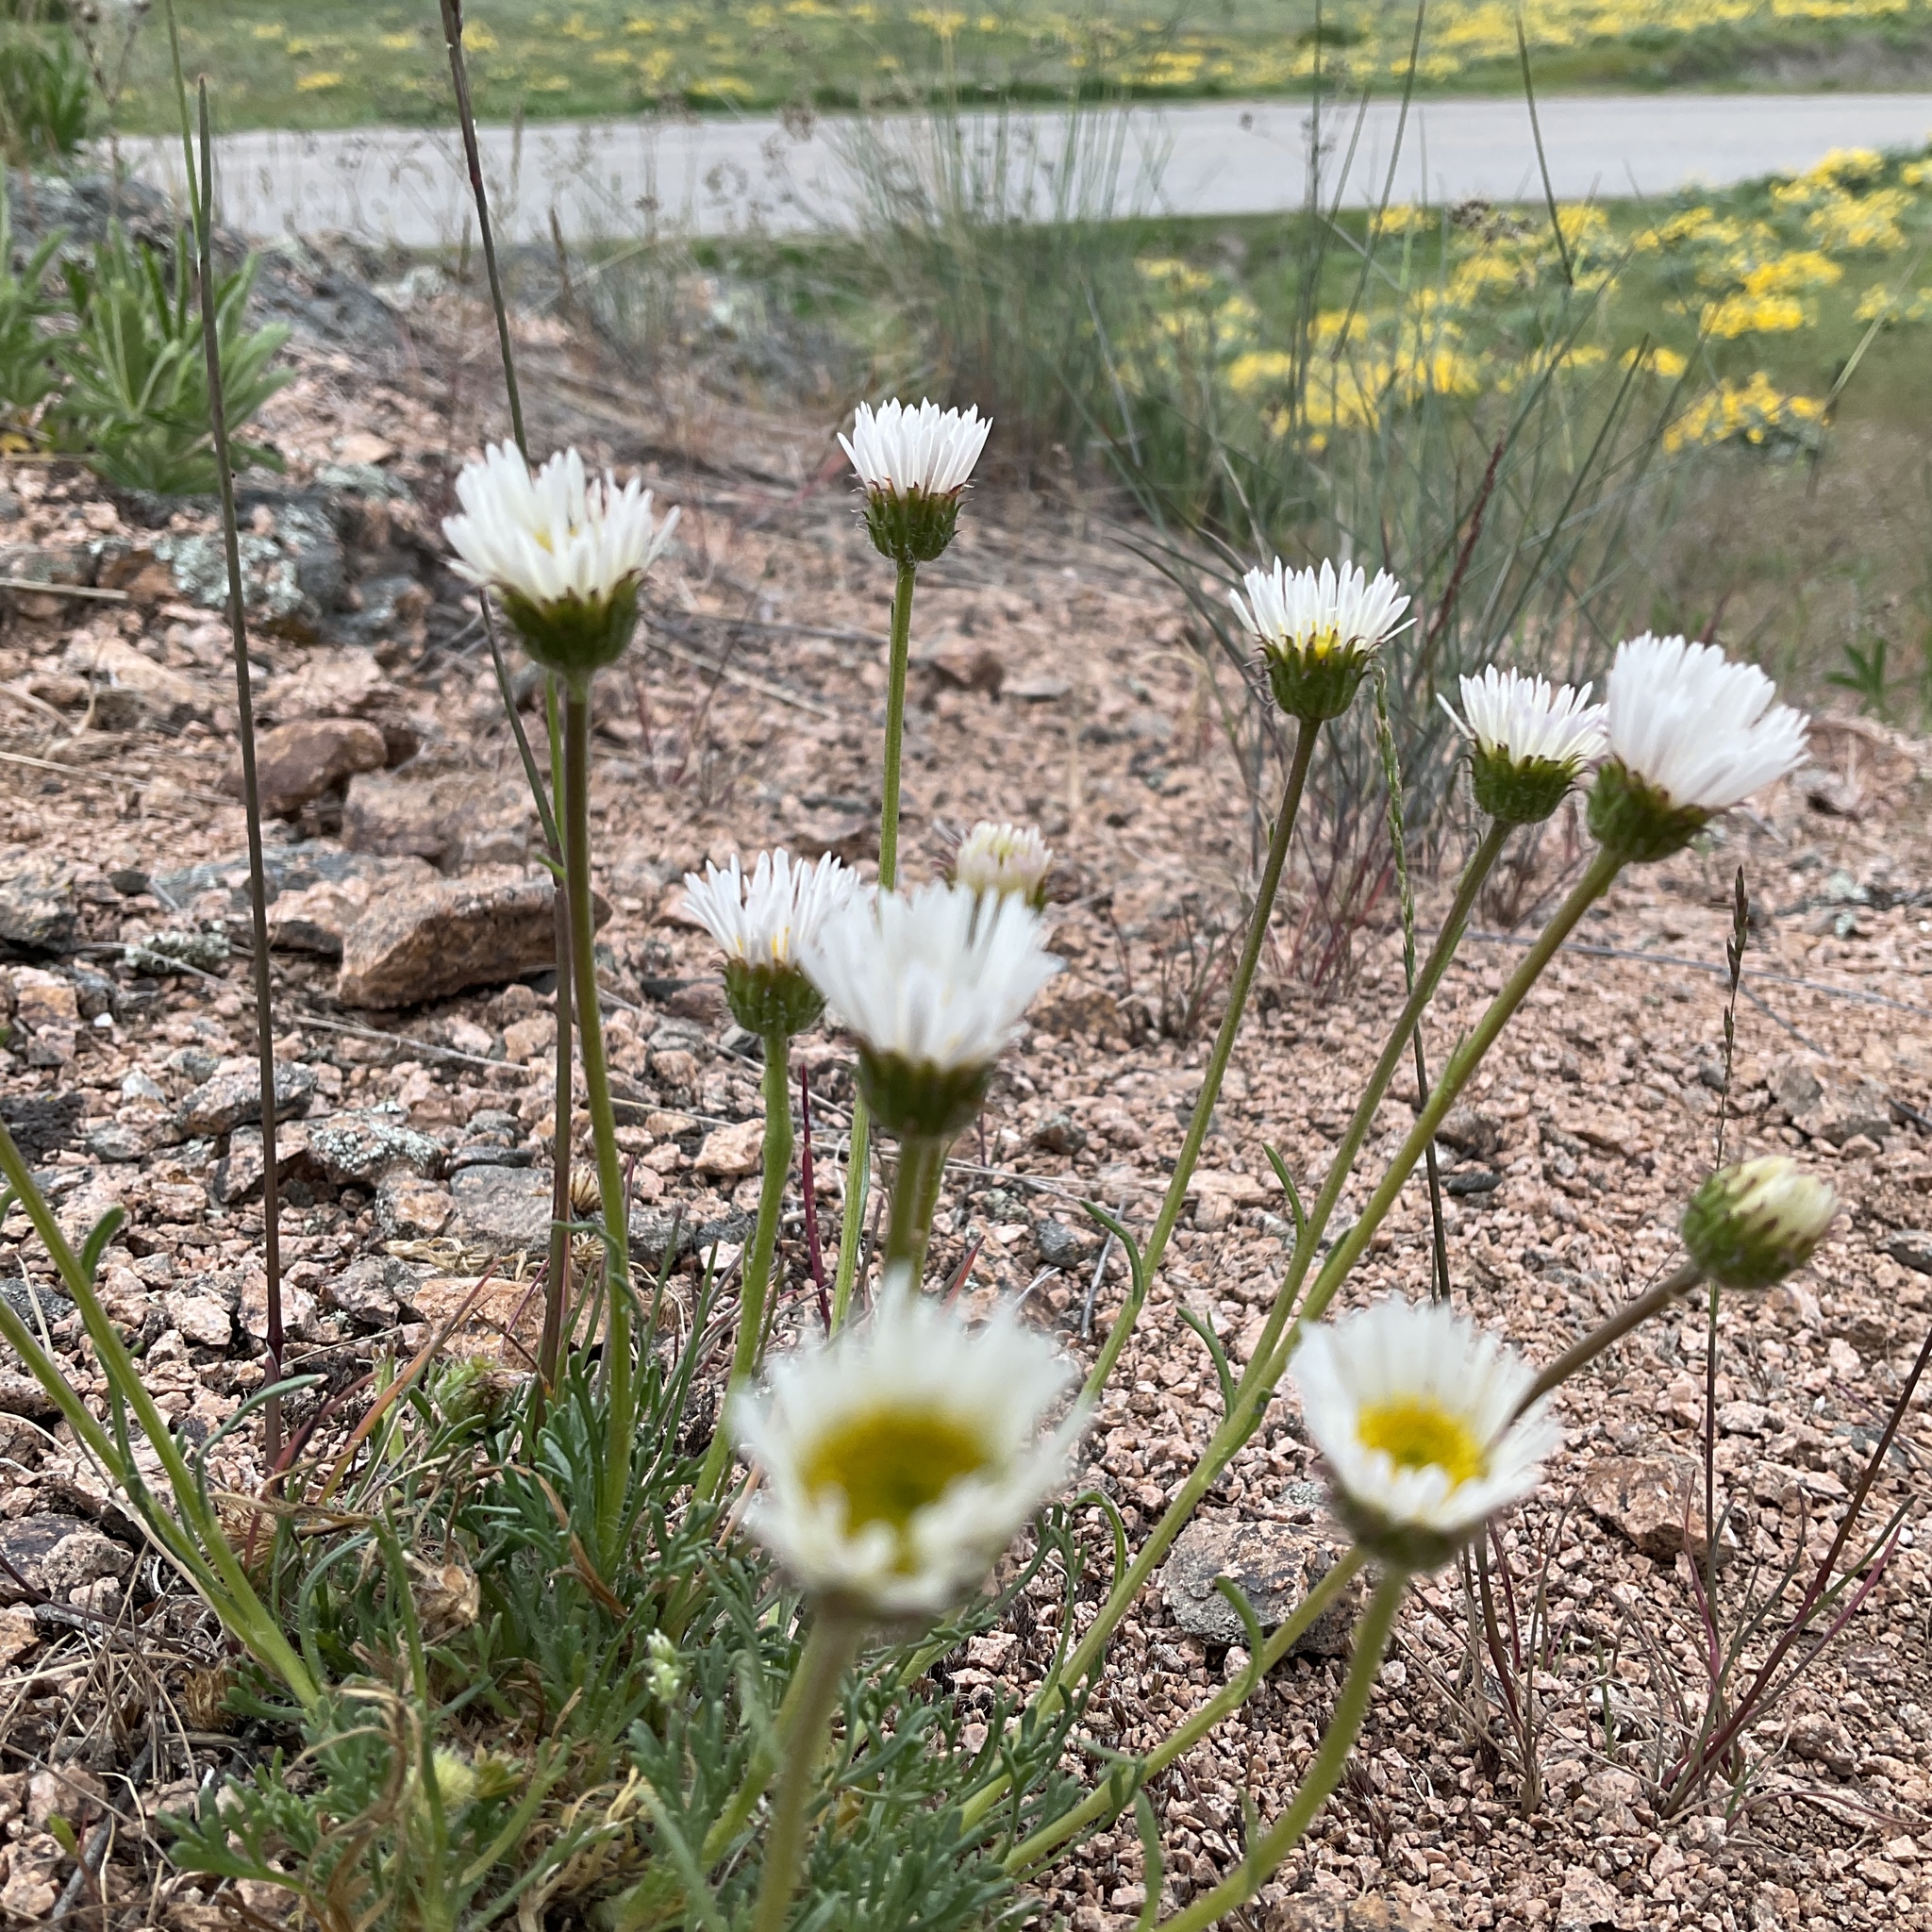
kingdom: Plantae
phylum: Tracheophyta
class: Magnoliopsida
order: Asterales
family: Asteraceae
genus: Erigeron
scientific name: Erigeron compositus
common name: Dwarf mountain fleabane
